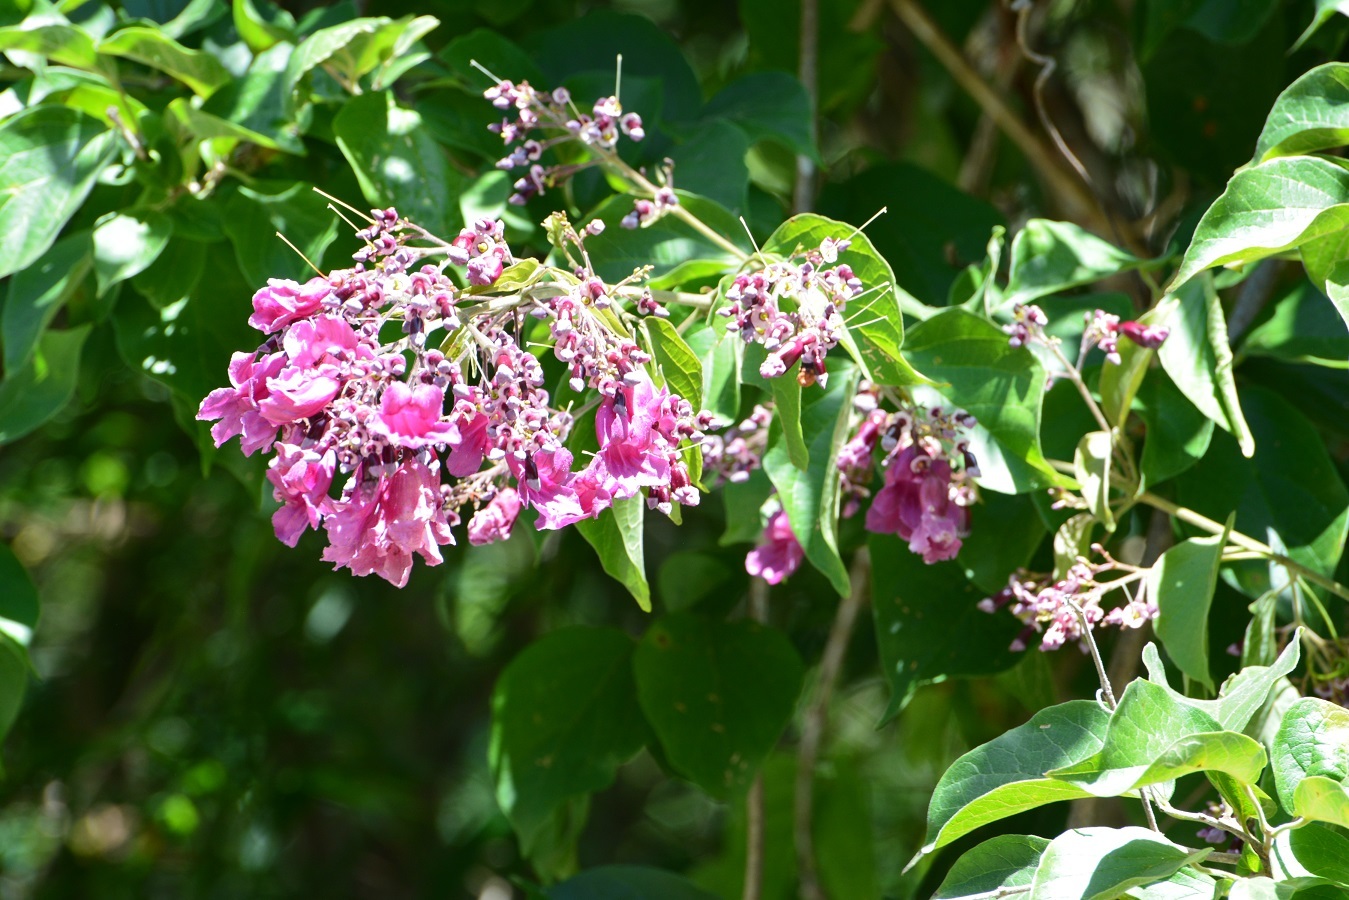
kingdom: Plantae
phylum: Tracheophyta
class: Magnoliopsida
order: Lamiales
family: Bignoniaceae
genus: Fridericia
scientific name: Fridericia chica
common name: Cricketvine
